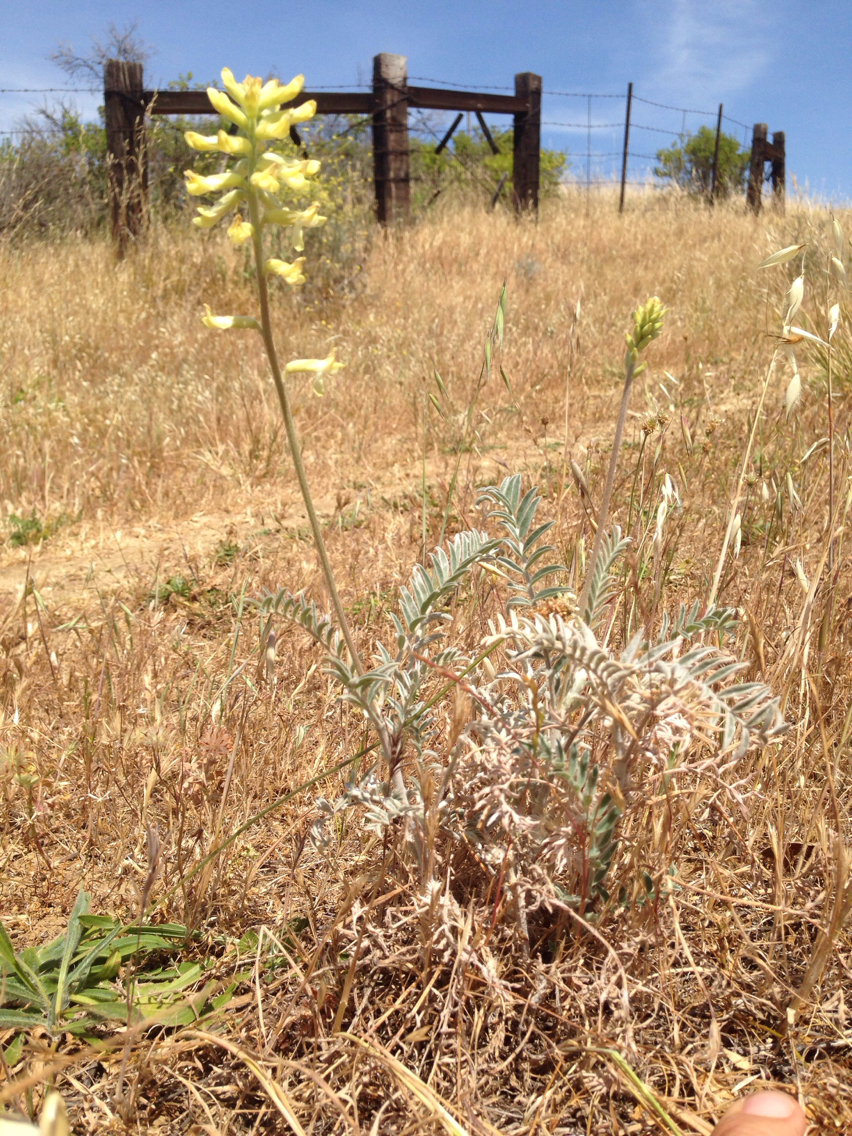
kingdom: Plantae
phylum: Tracheophyta
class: Magnoliopsida
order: Fabales
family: Fabaceae
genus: Astragalus
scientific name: Astragalus asymmetricus
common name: Horse locoweed
